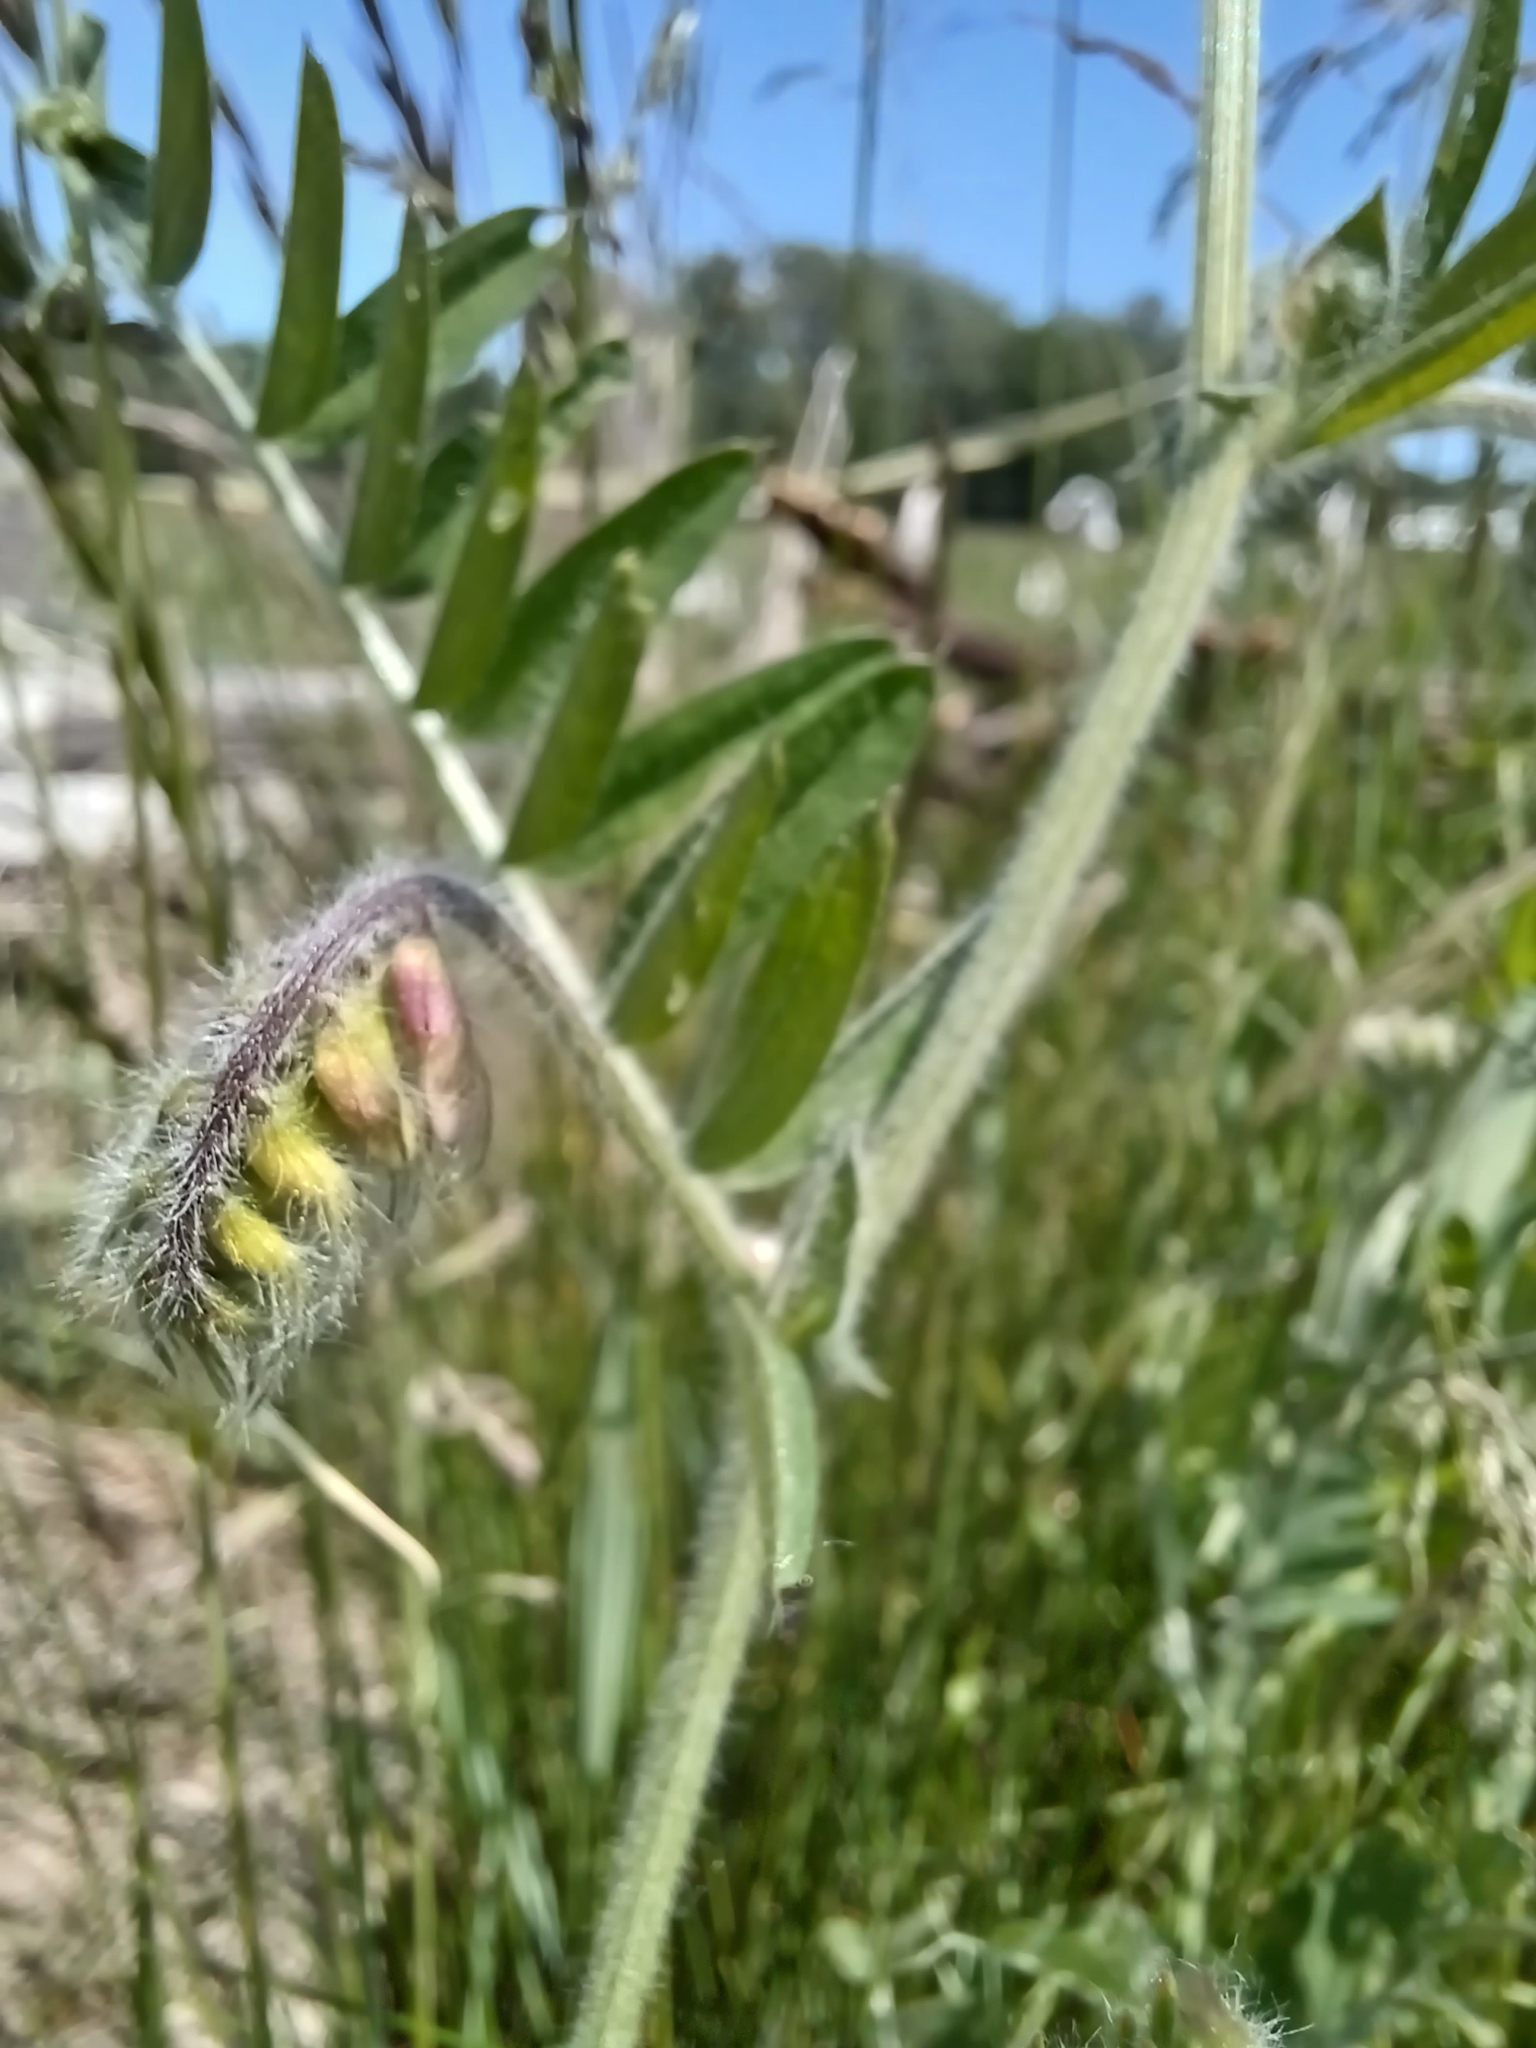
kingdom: Plantae
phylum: Tracheophyta
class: Magnoliopsida
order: Fabales
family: Fabaceae
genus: Vicia
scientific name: Vicia villosa
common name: Fodder vetch
